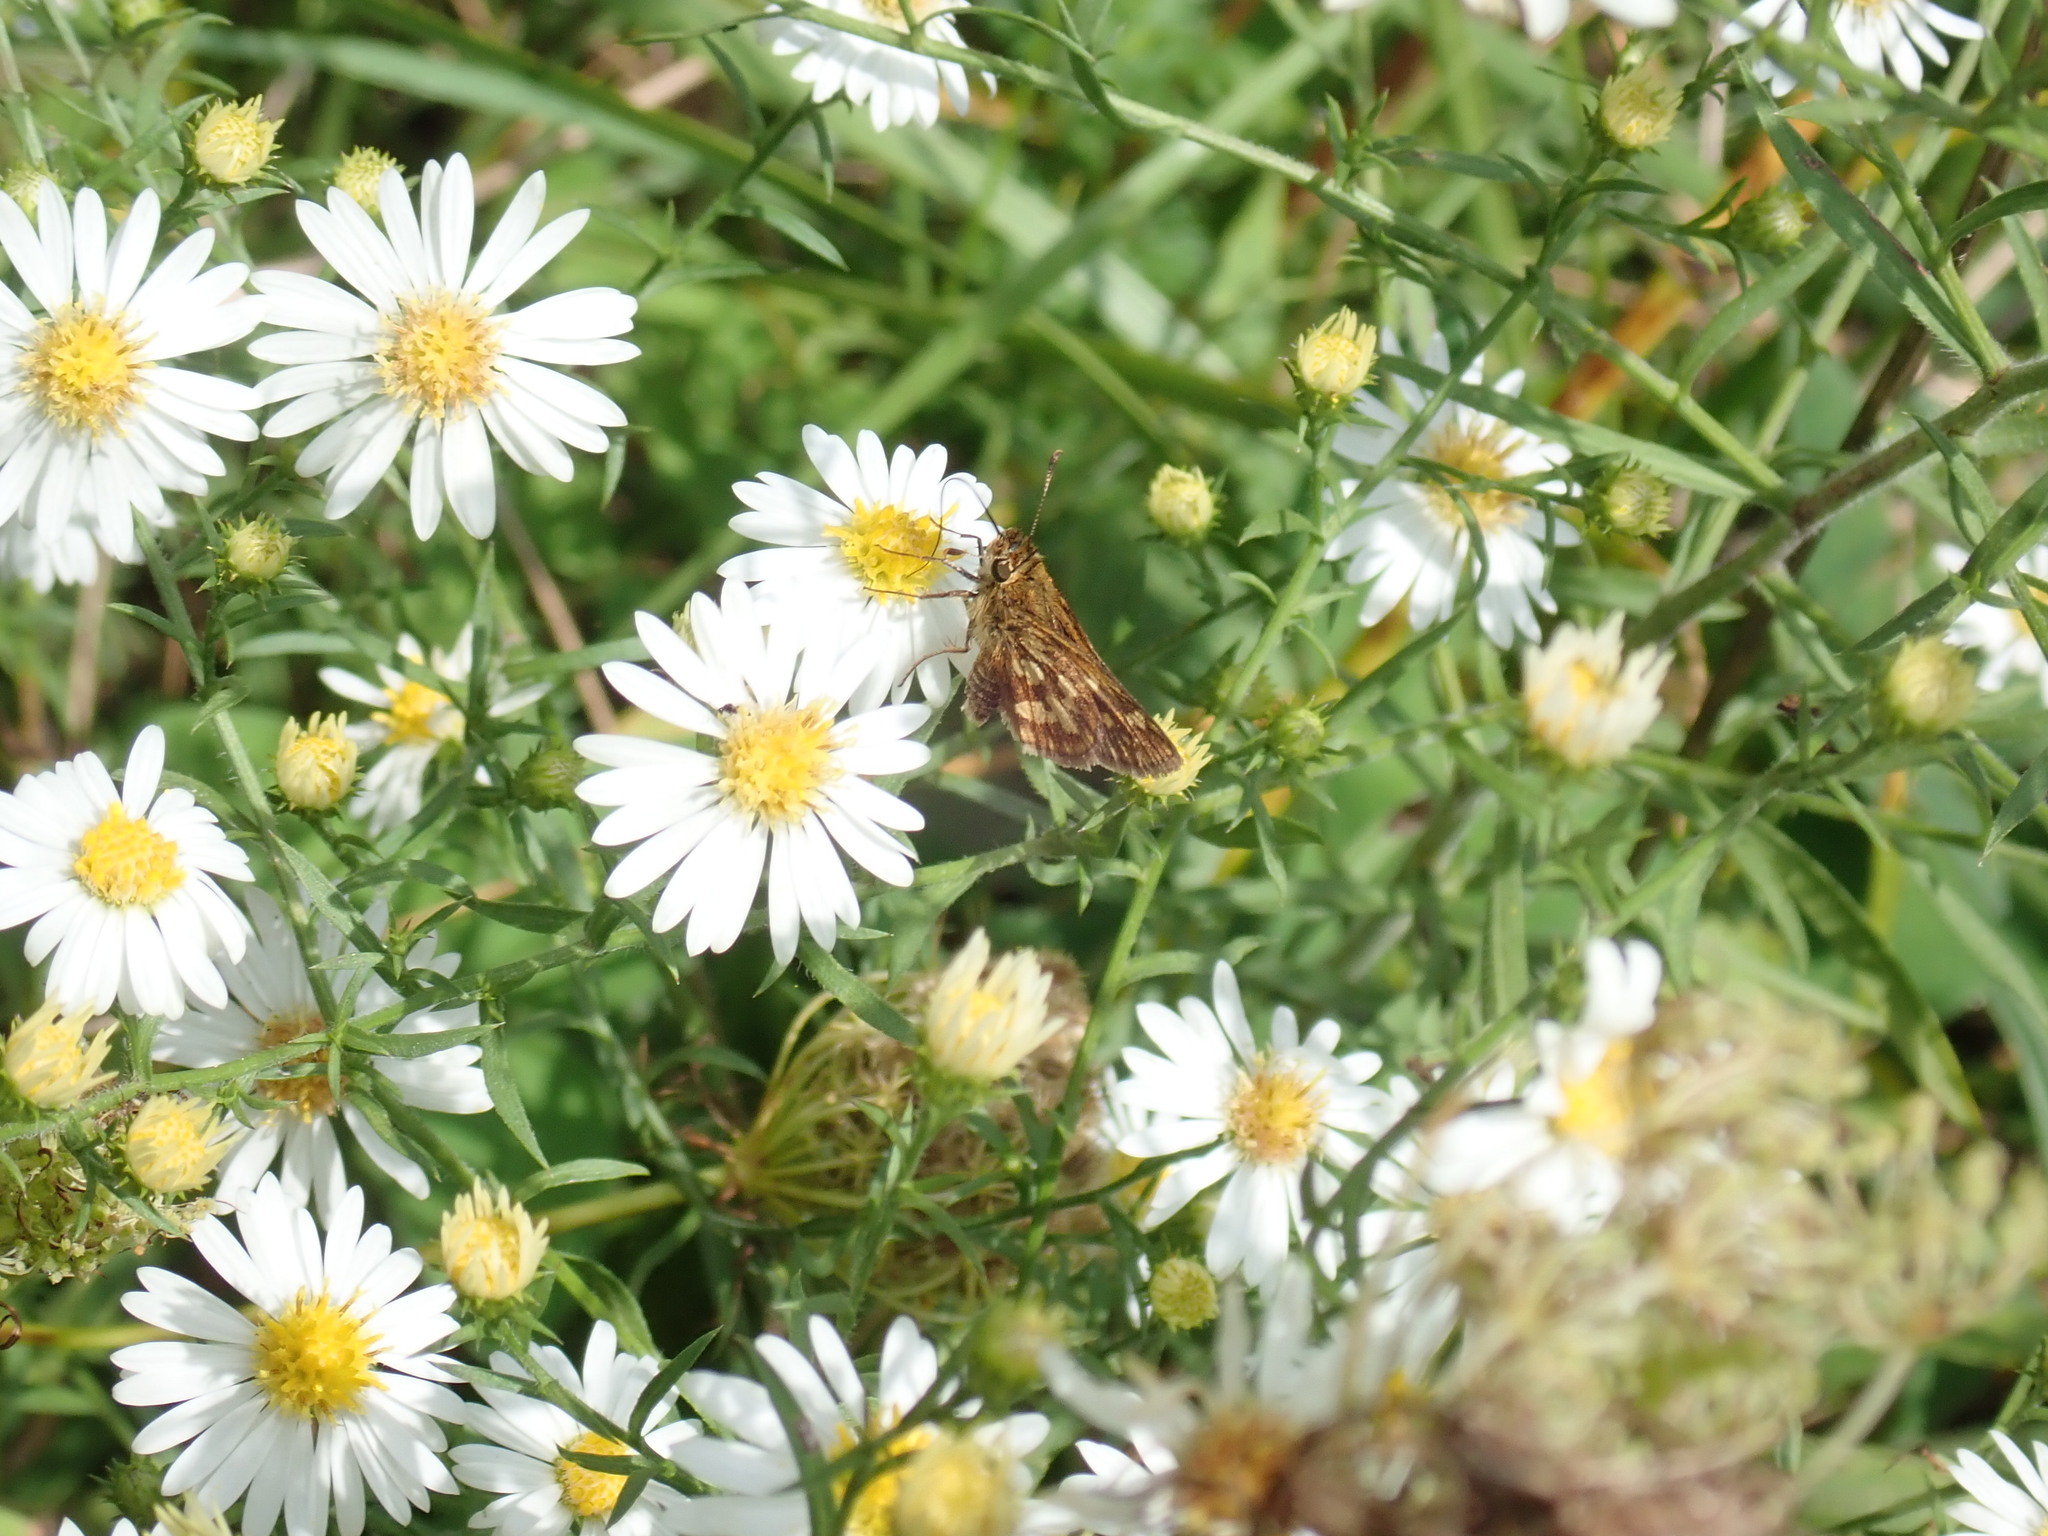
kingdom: Animalia
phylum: Arthropoda
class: Insecta
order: Lepidoptera
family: Hesperiidae
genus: Polites
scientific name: Polites coras
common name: Peck's skipper
